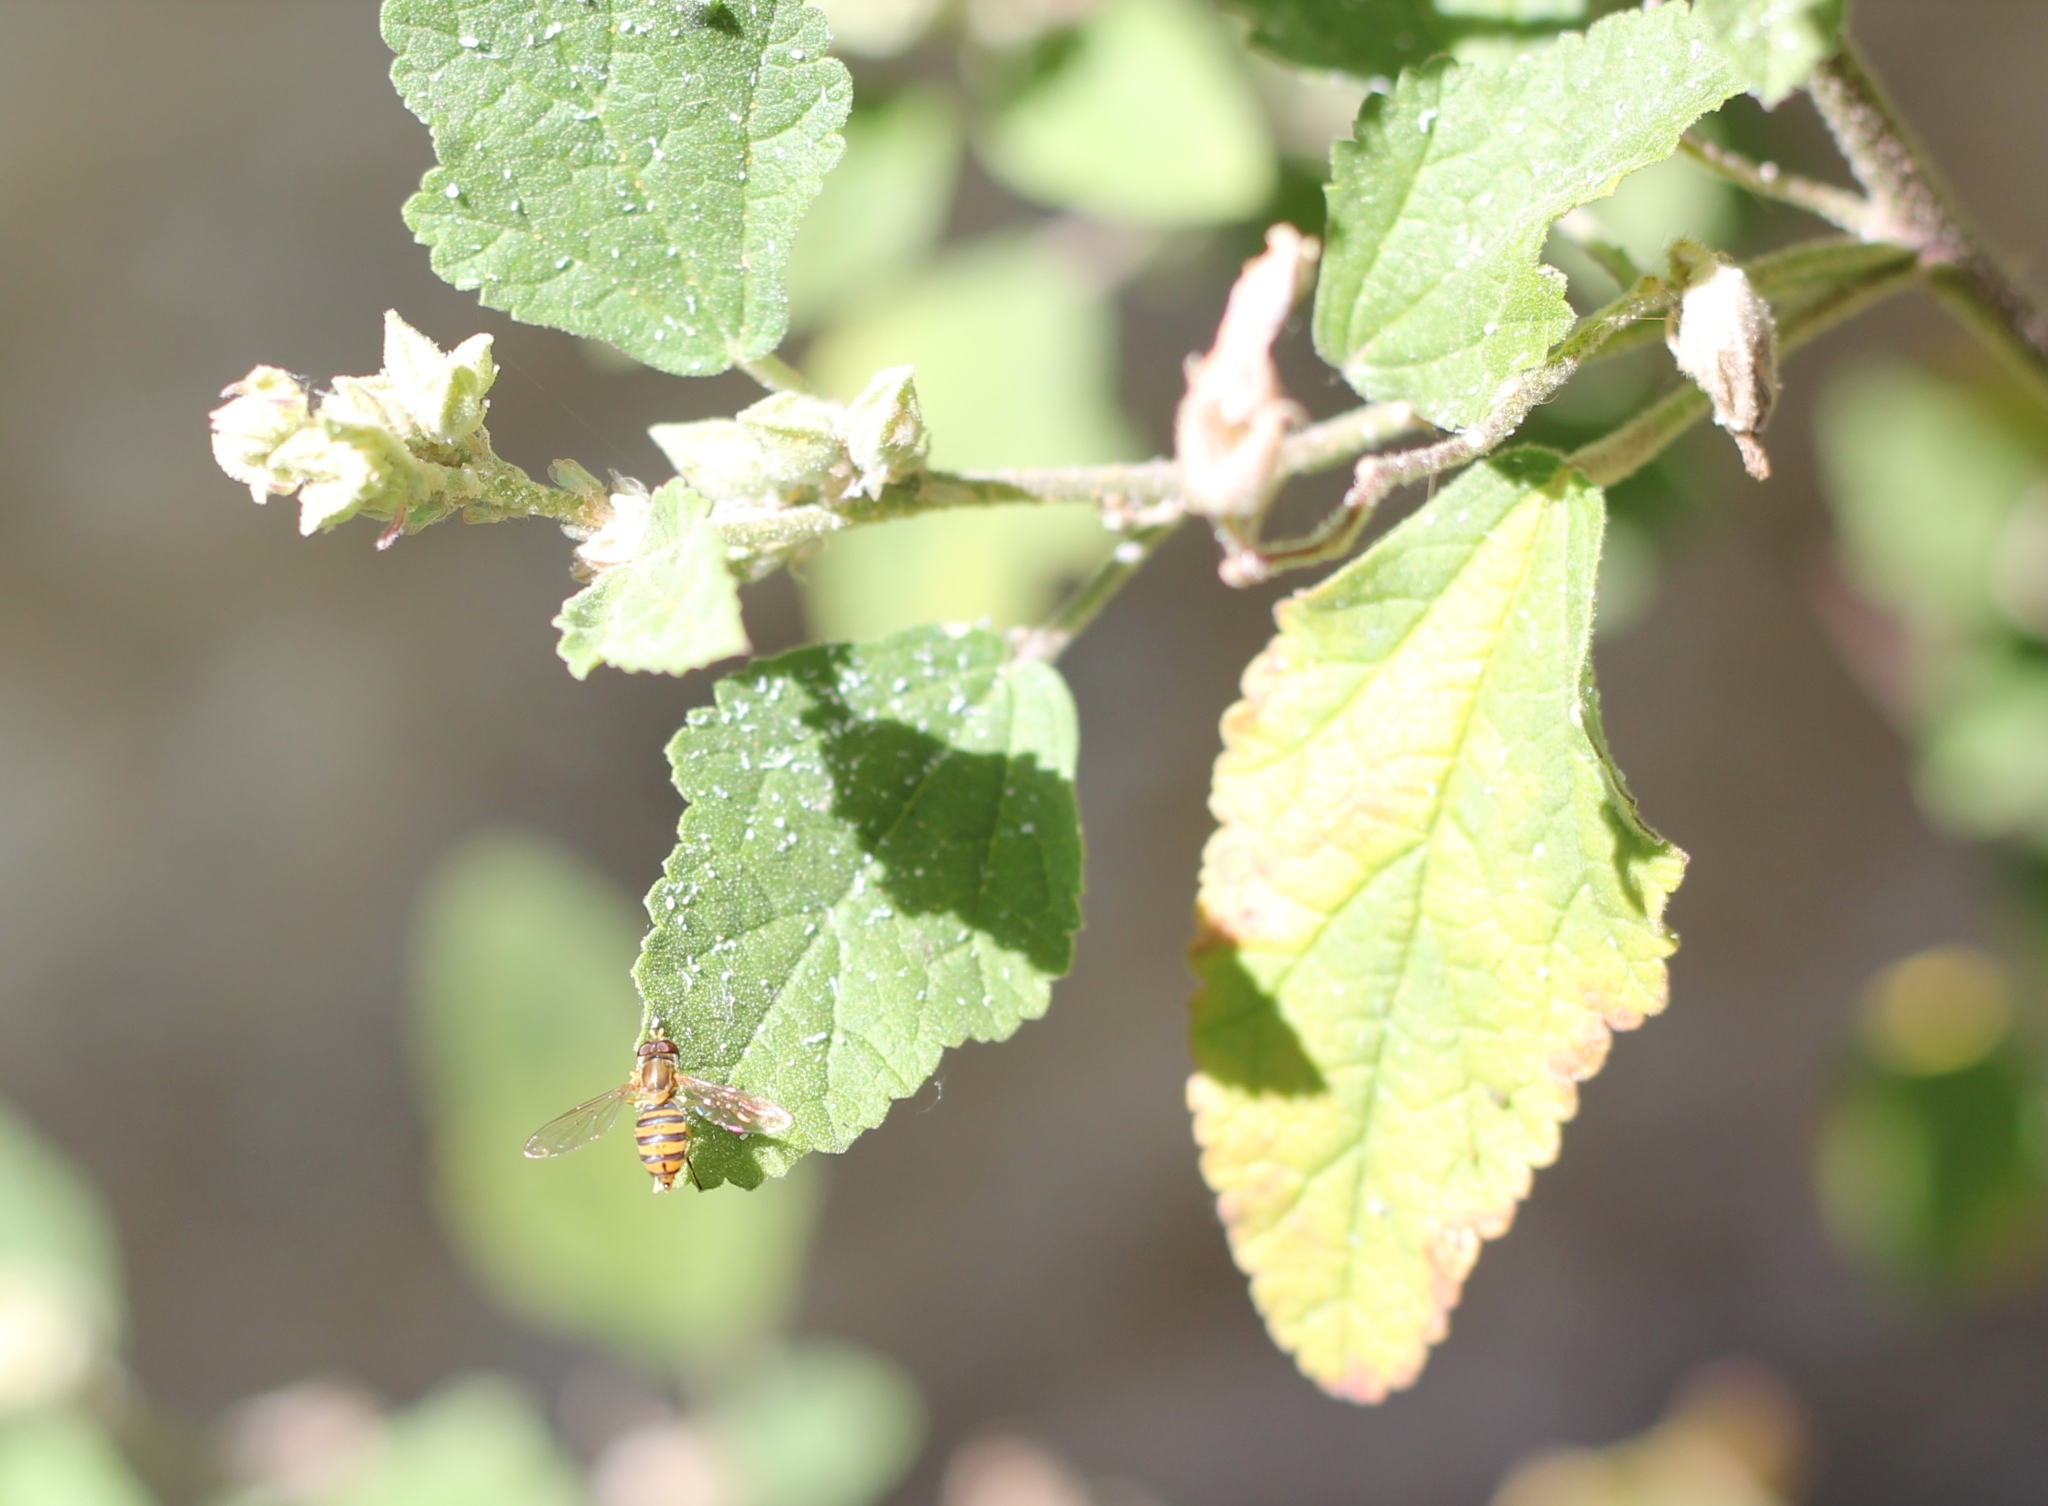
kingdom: Animalia
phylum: Arthropoda
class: Insecta
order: Diptera
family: Syrphidae
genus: Toxomerus
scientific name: Toxomerus
